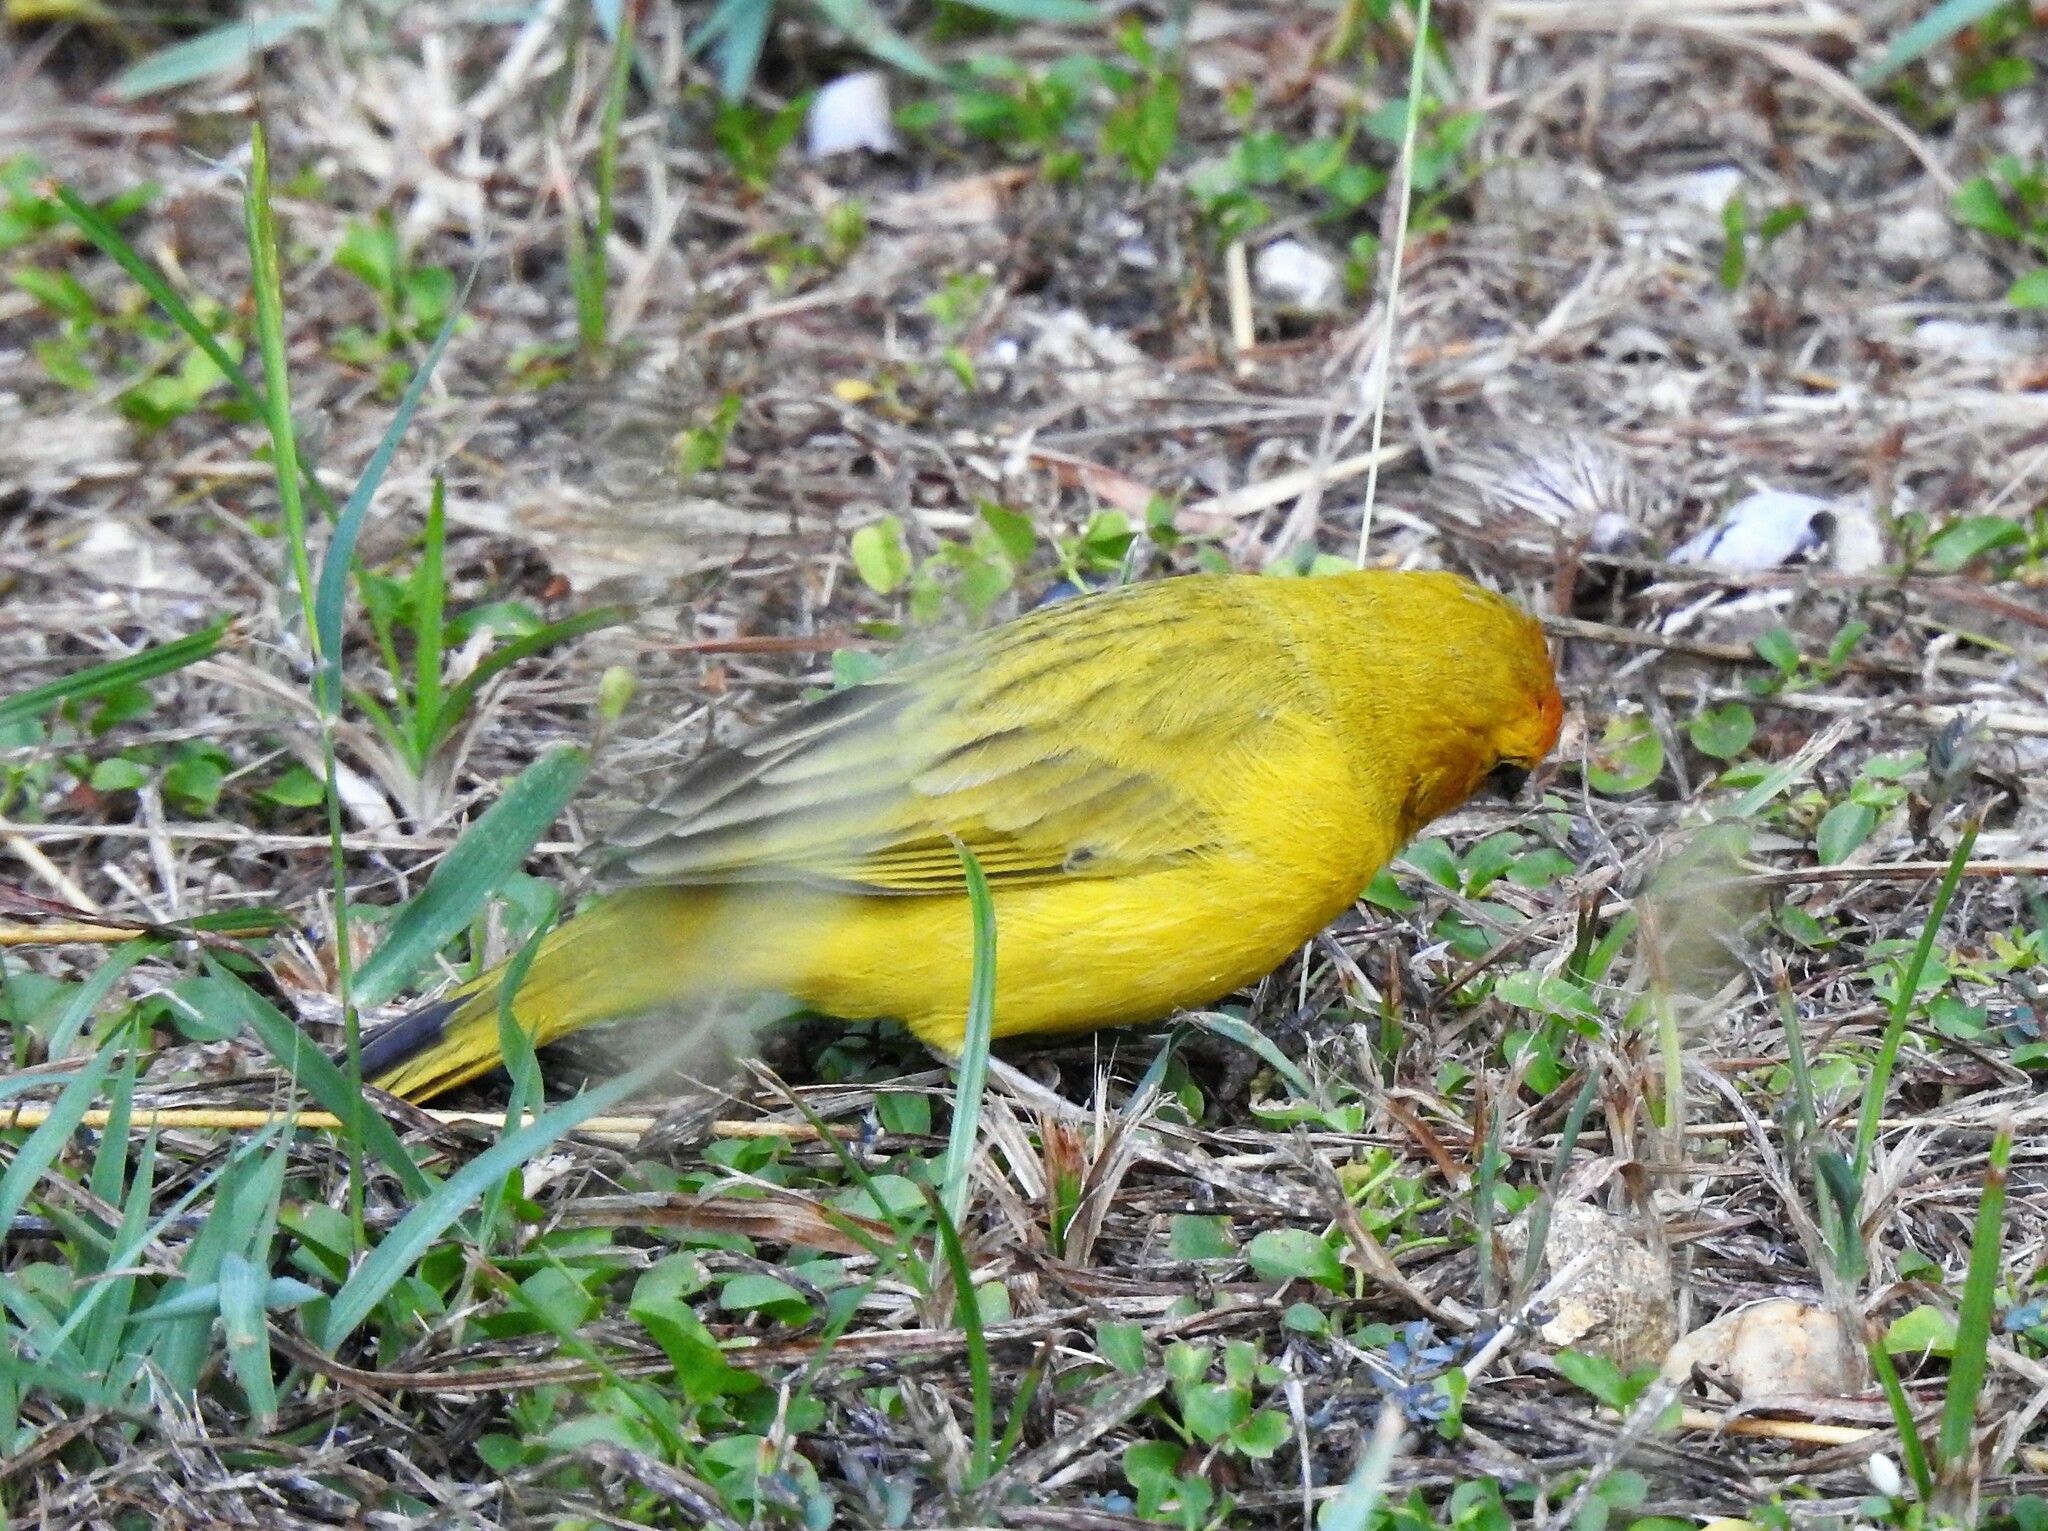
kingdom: Animalia
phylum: Chordata
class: Aves
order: Passeriformes
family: Thraupidae
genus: Sicalis
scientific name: Sicalis flaveola
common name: Saffron finch
